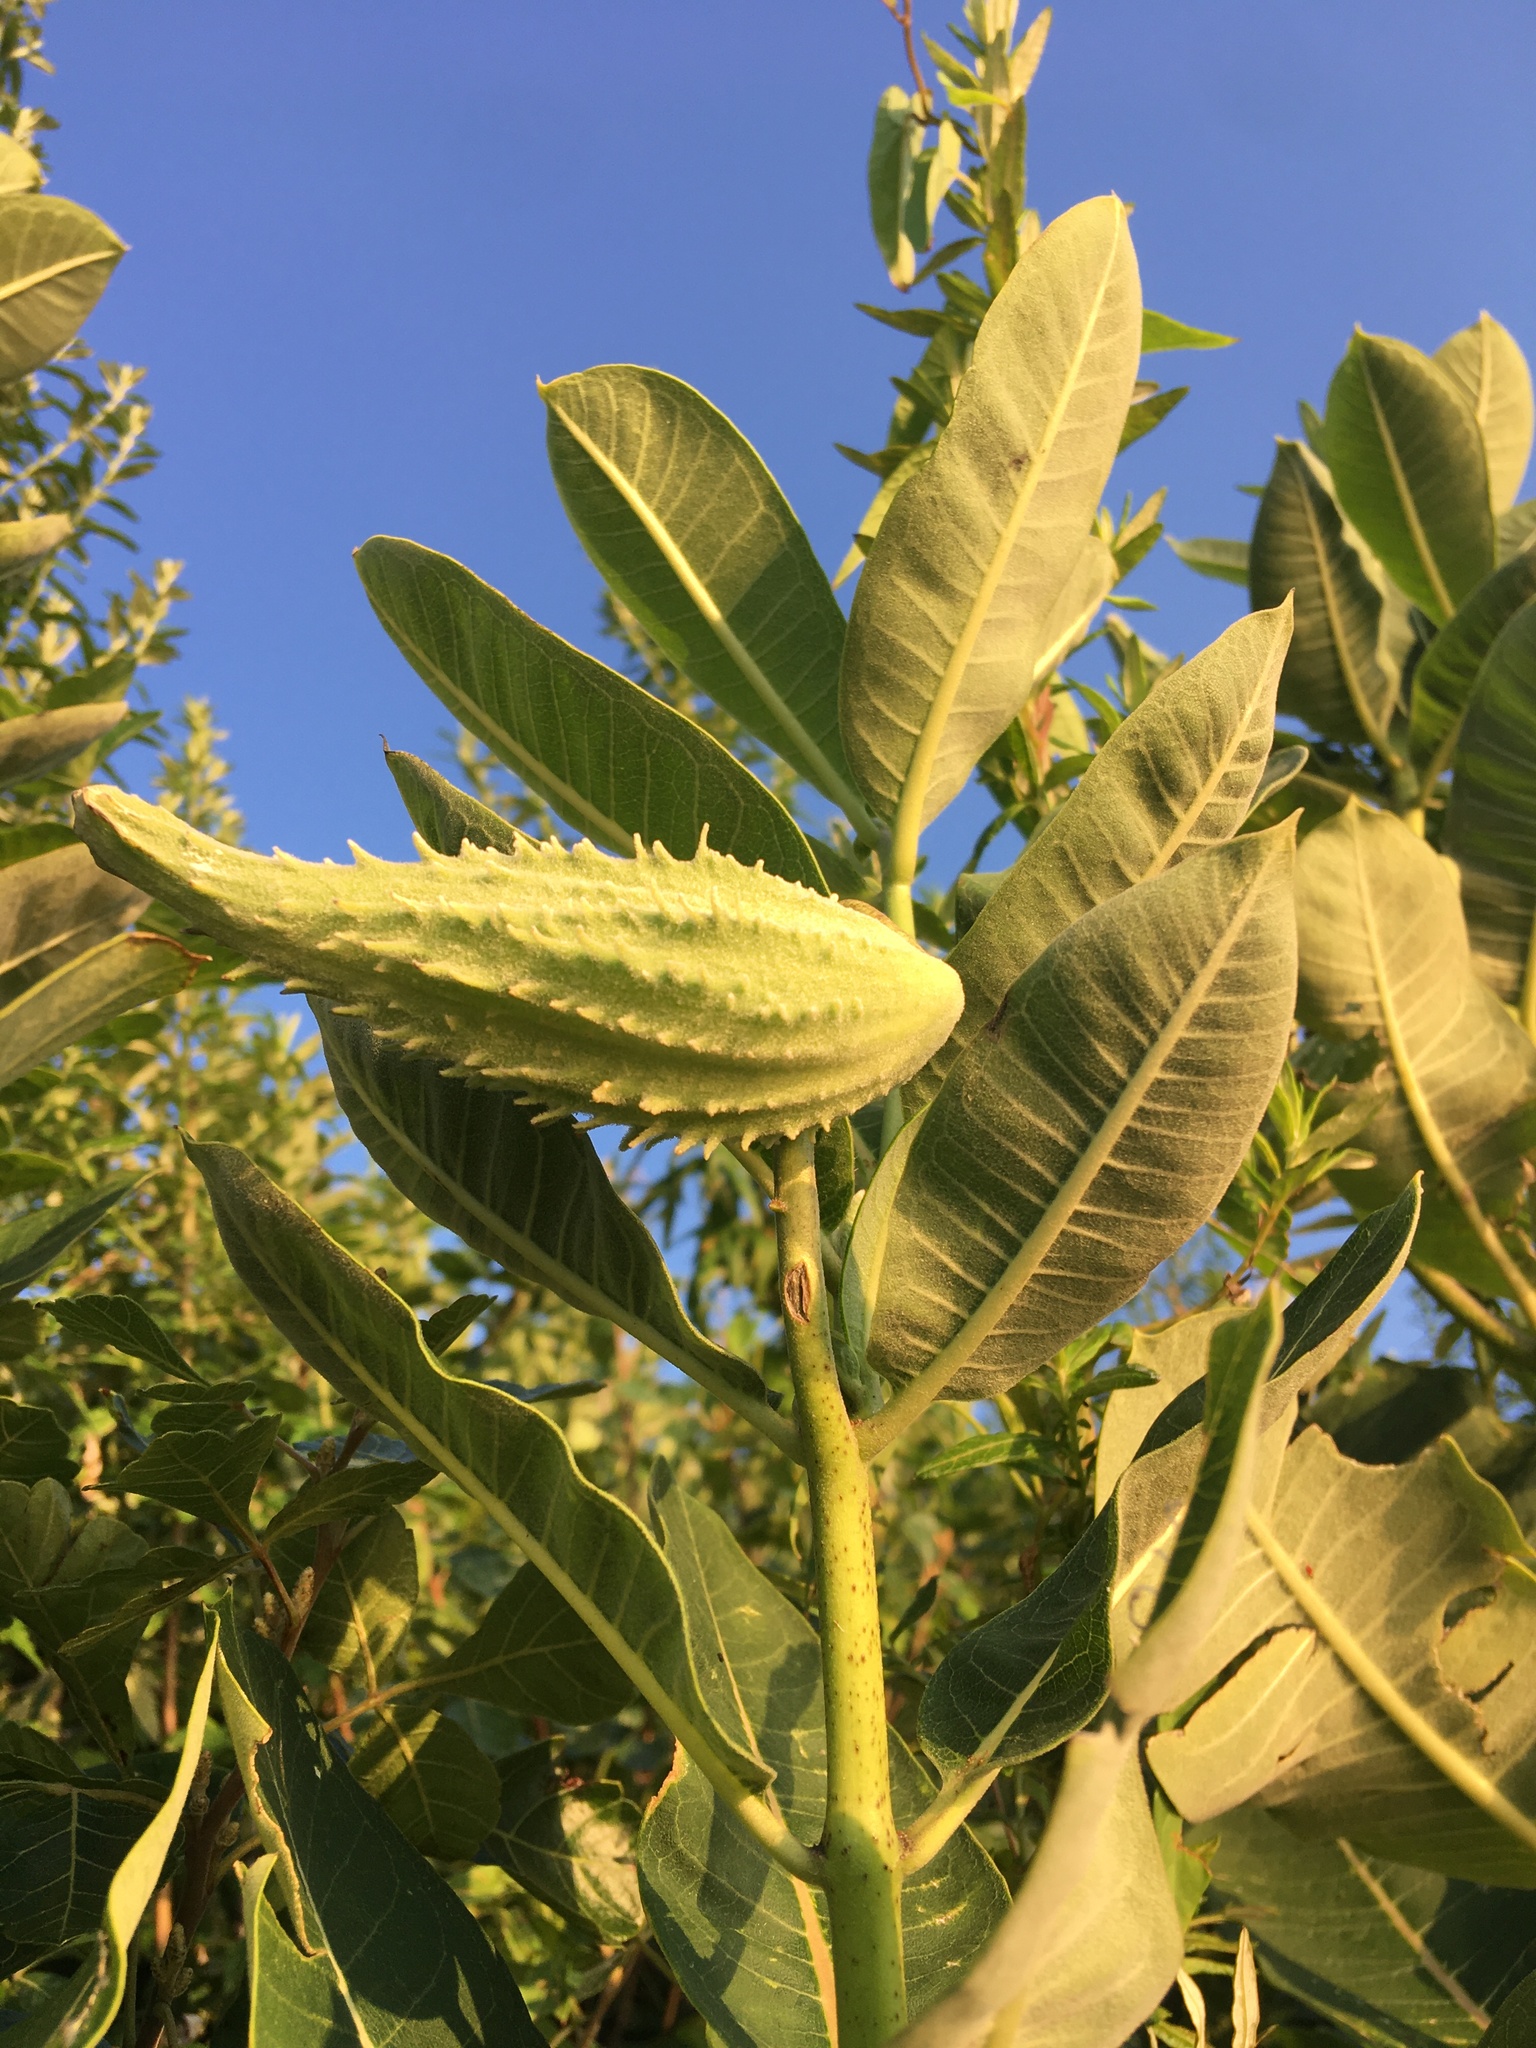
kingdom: Plantae
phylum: Tracheophyta
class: Magnoliopsida
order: Gentianales
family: Apocynaceae
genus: Asclepias
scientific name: Asclepias syriaca
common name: Common milkweed
